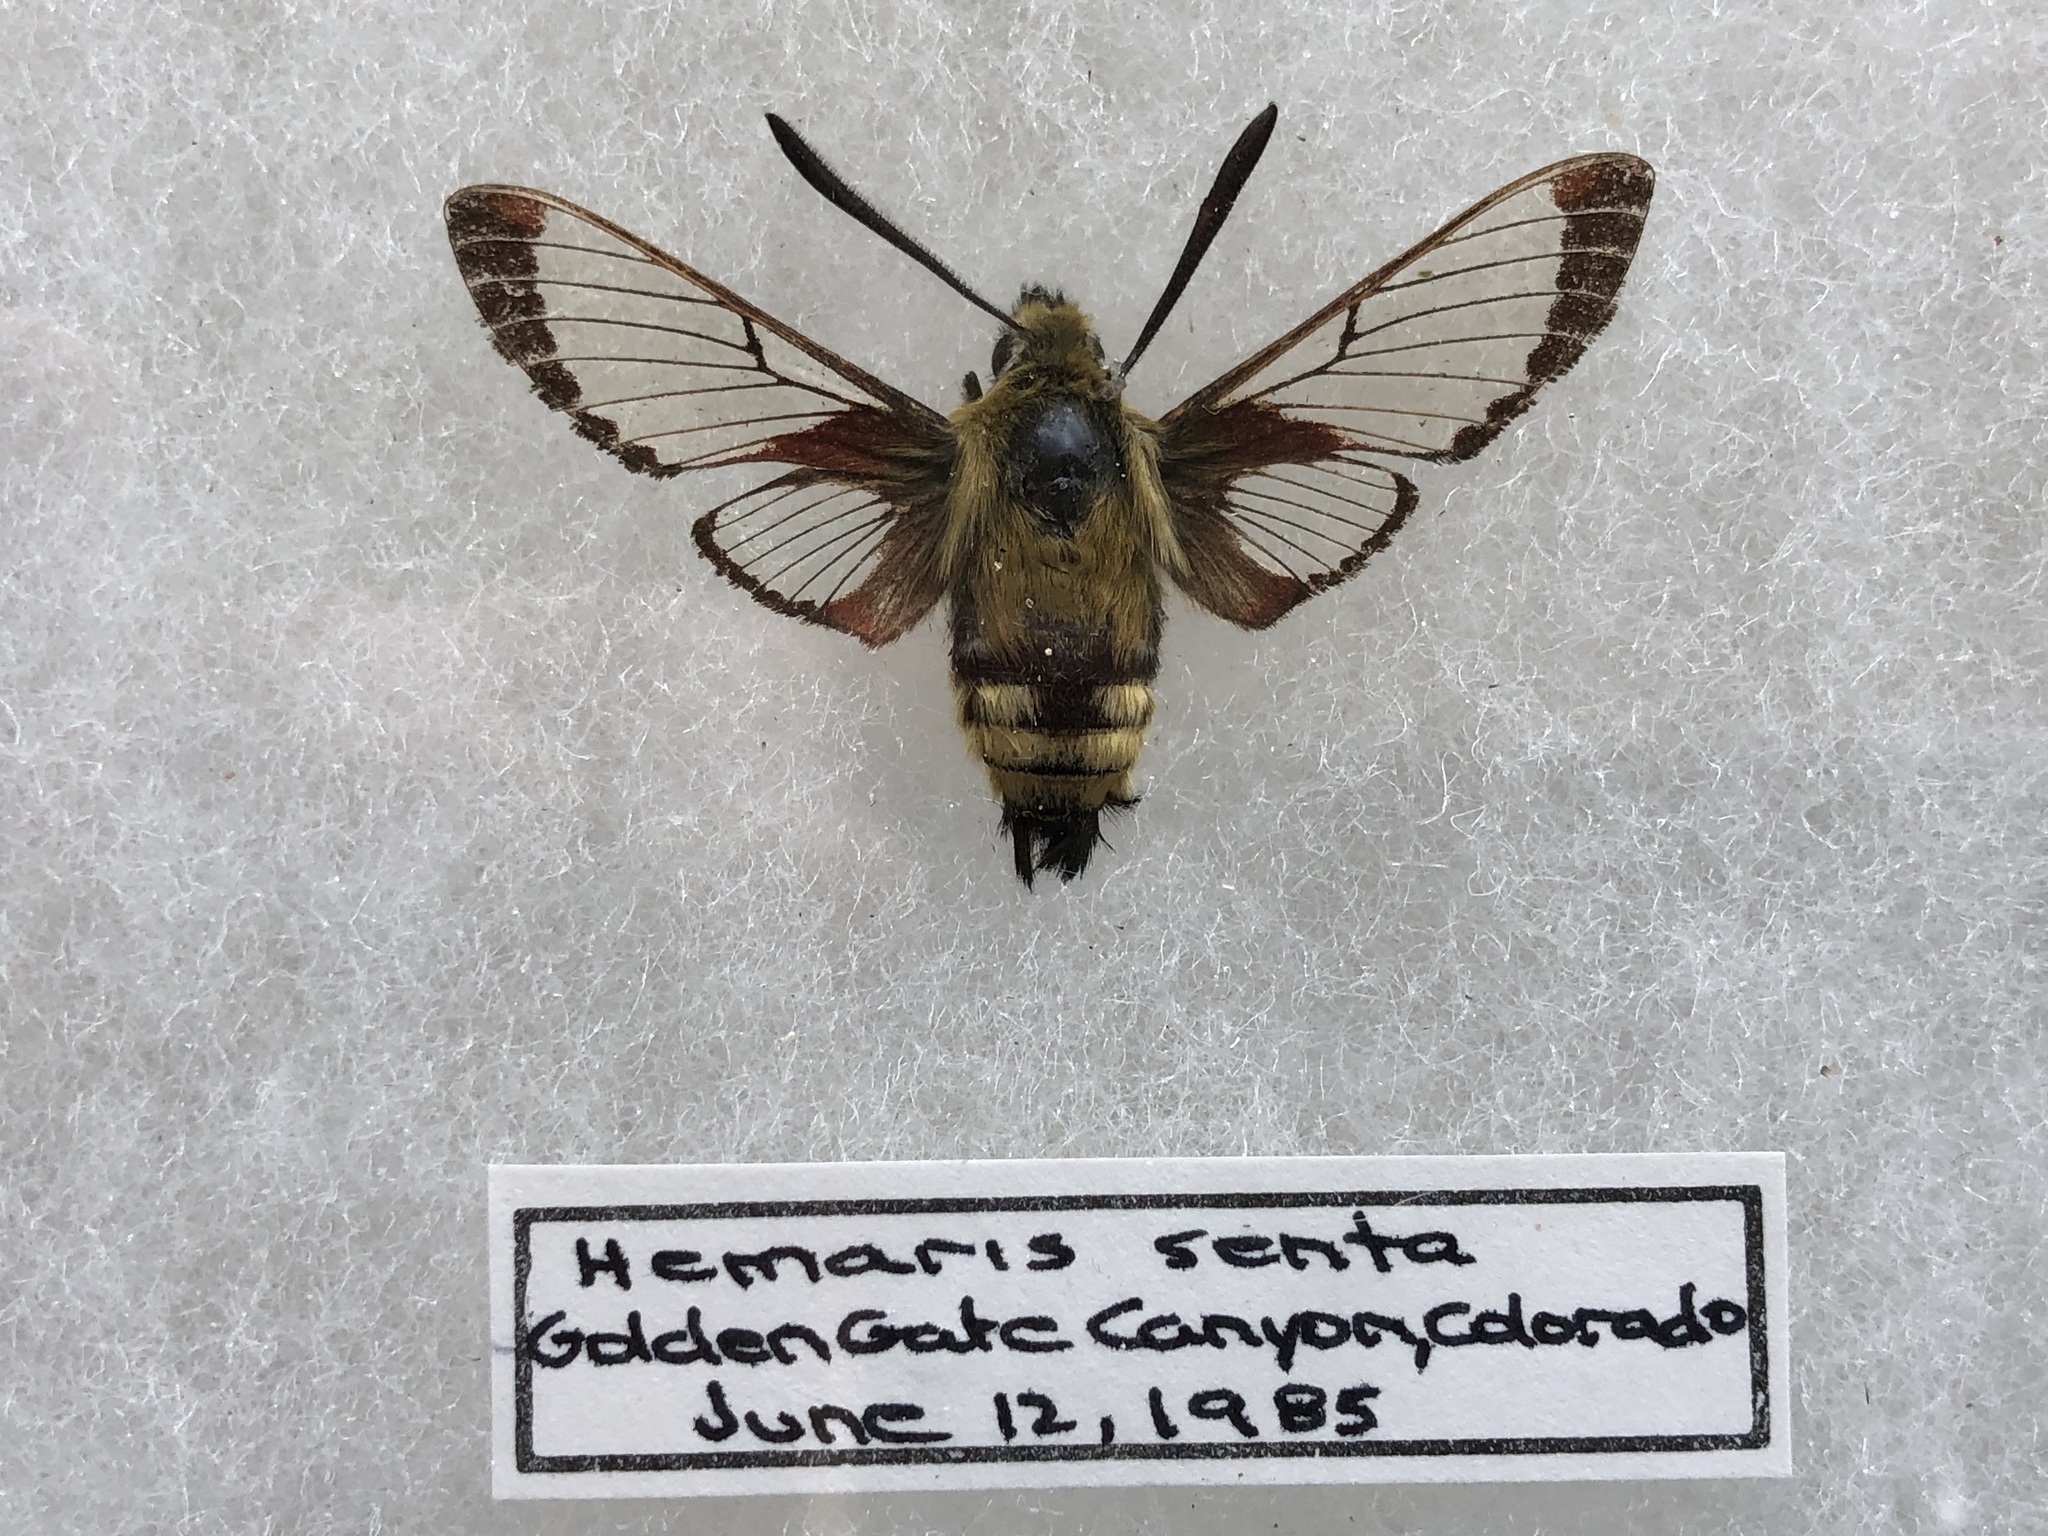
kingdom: Animalia
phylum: Arthropoda
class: Insecta
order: Lepidoptera
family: Sphingidae
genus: Hemaris
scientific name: Hemaris thetis
